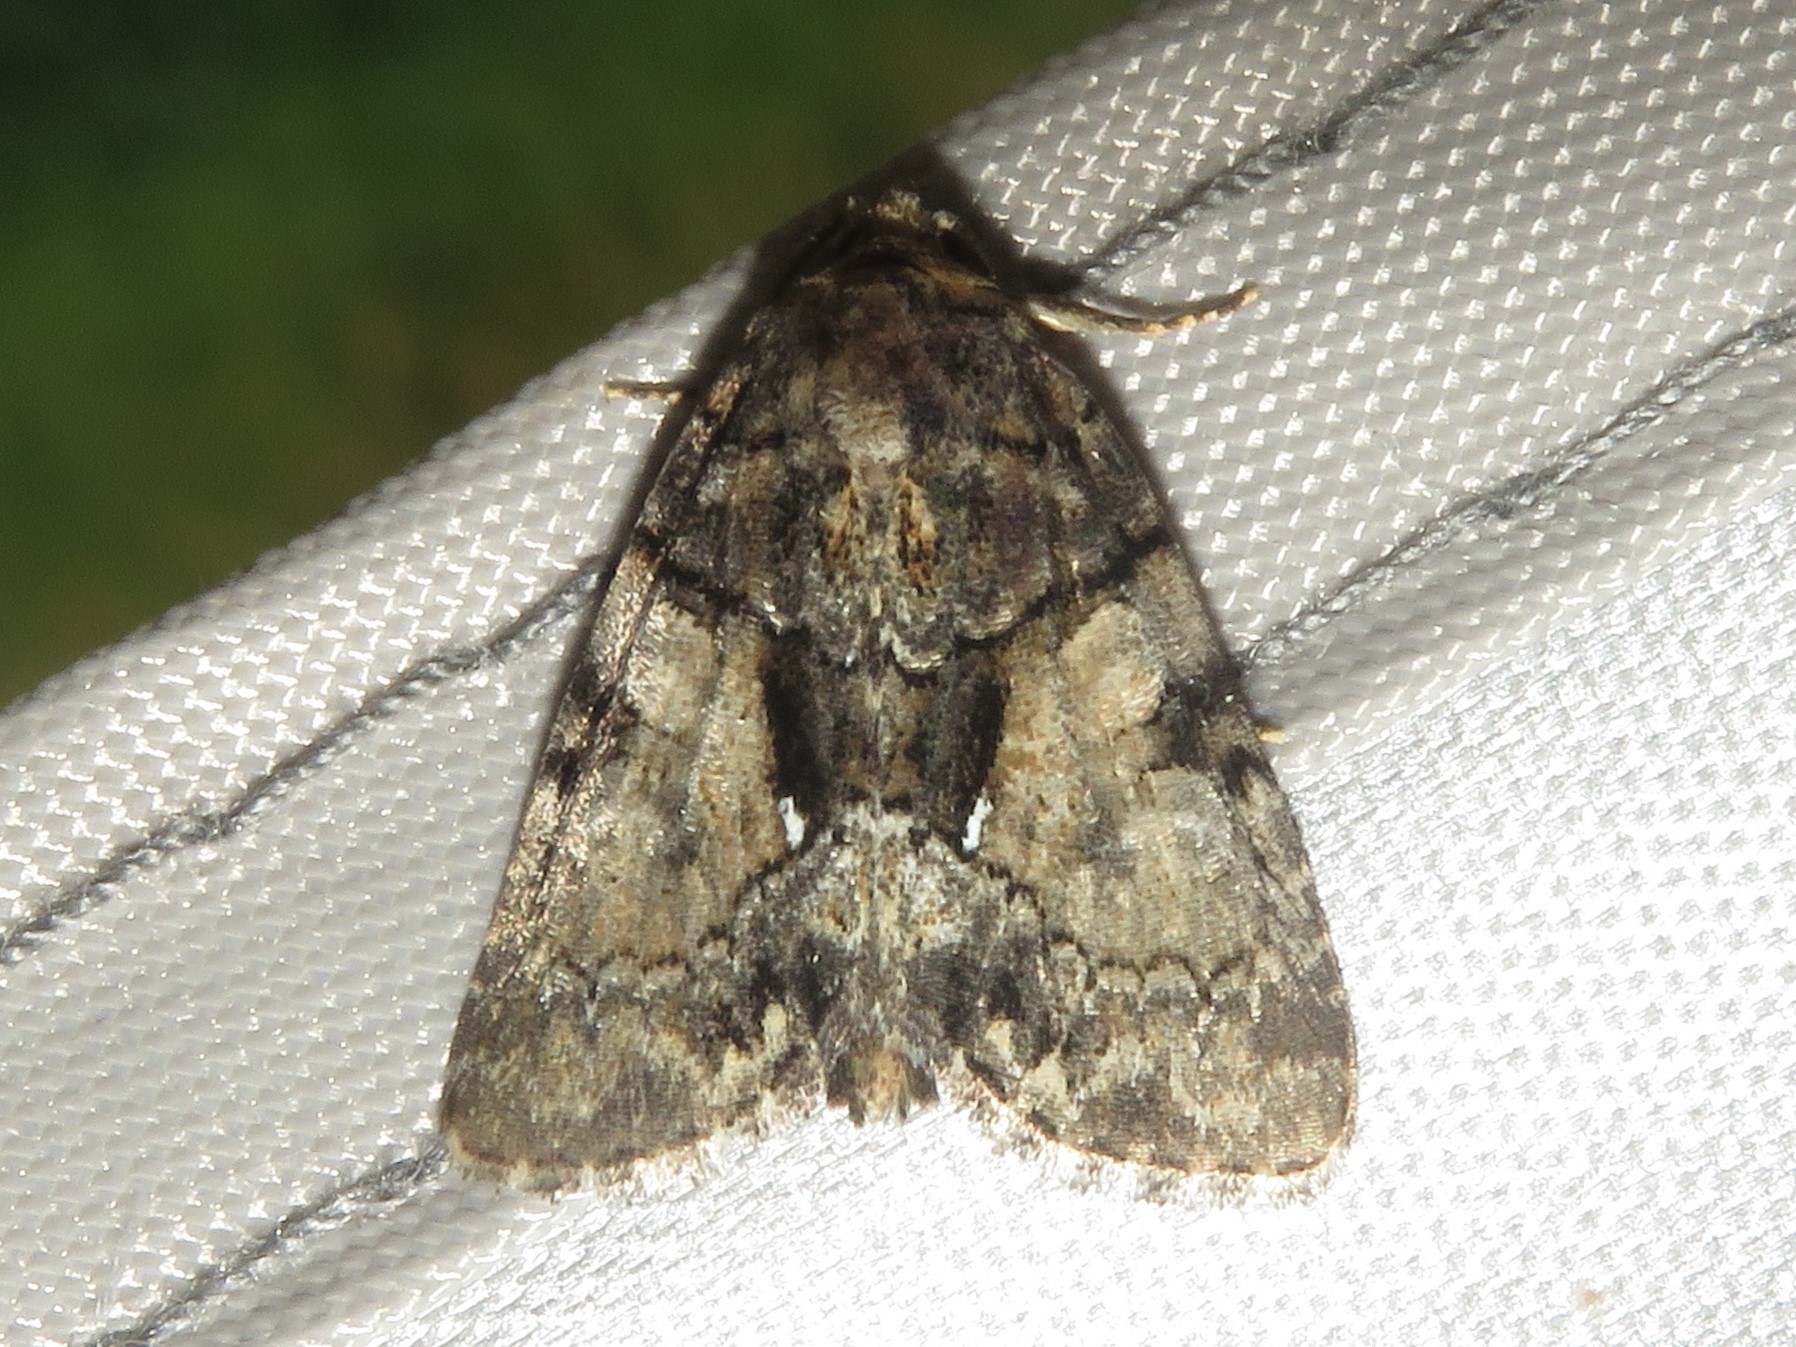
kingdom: Animalia
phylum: Arthropoda
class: Insecta
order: Lepidoptera
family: Noctuidae
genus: Chytonix
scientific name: Chytonix palliatricula
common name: Cloaked marvel
